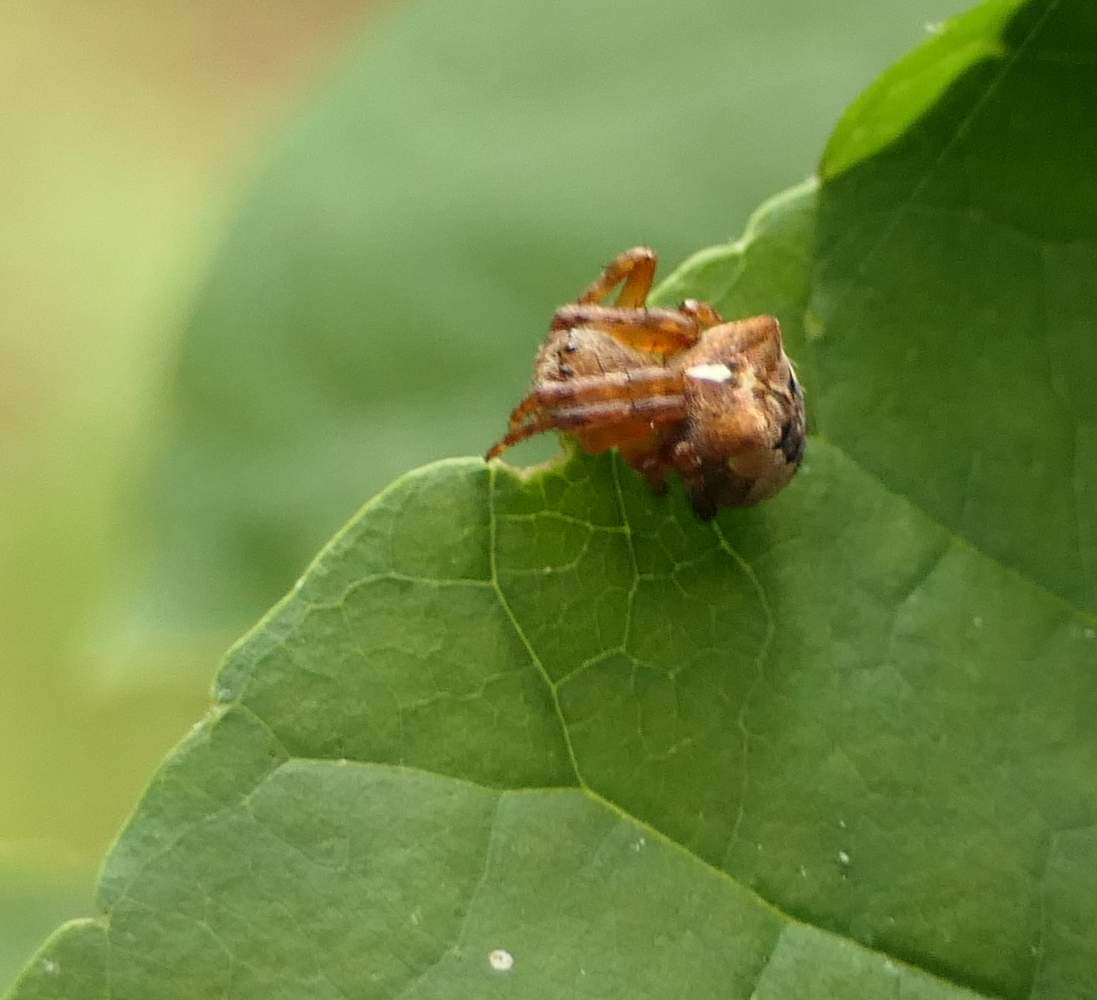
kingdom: Animalia
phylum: Arthropoda
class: Arachnida
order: Araneae
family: Araneidae
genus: Araneus
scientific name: Araneus saevus
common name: Fierce orbweaver
